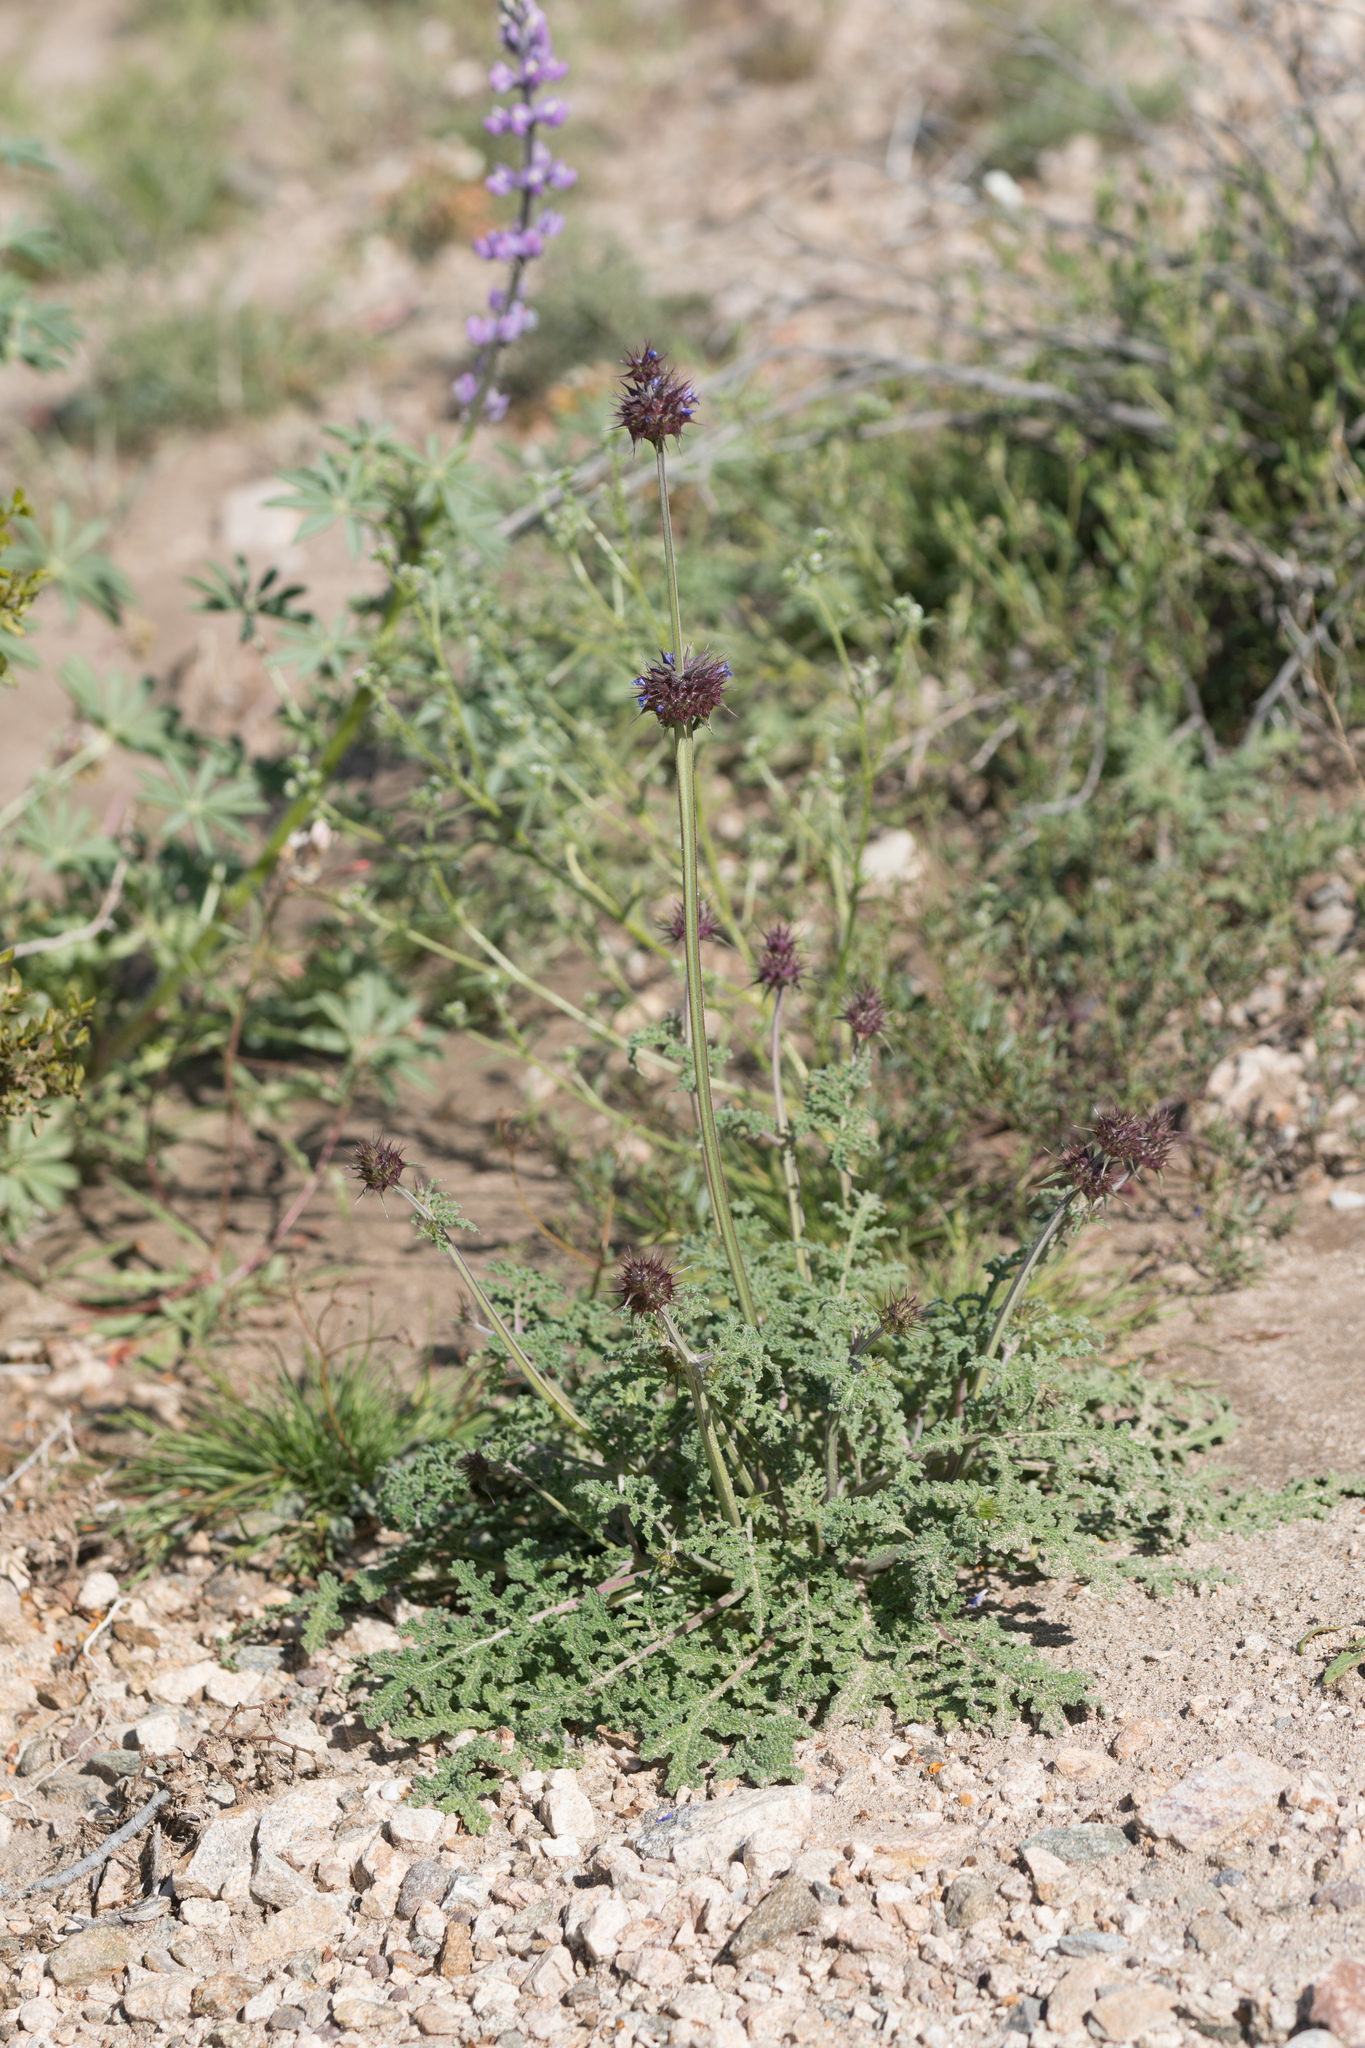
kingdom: Plantae
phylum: Tracheophyta
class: Magnoliopsida
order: Lamiales
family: Lamiaceae
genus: Salvia
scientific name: Salvia columbariae
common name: Chia
